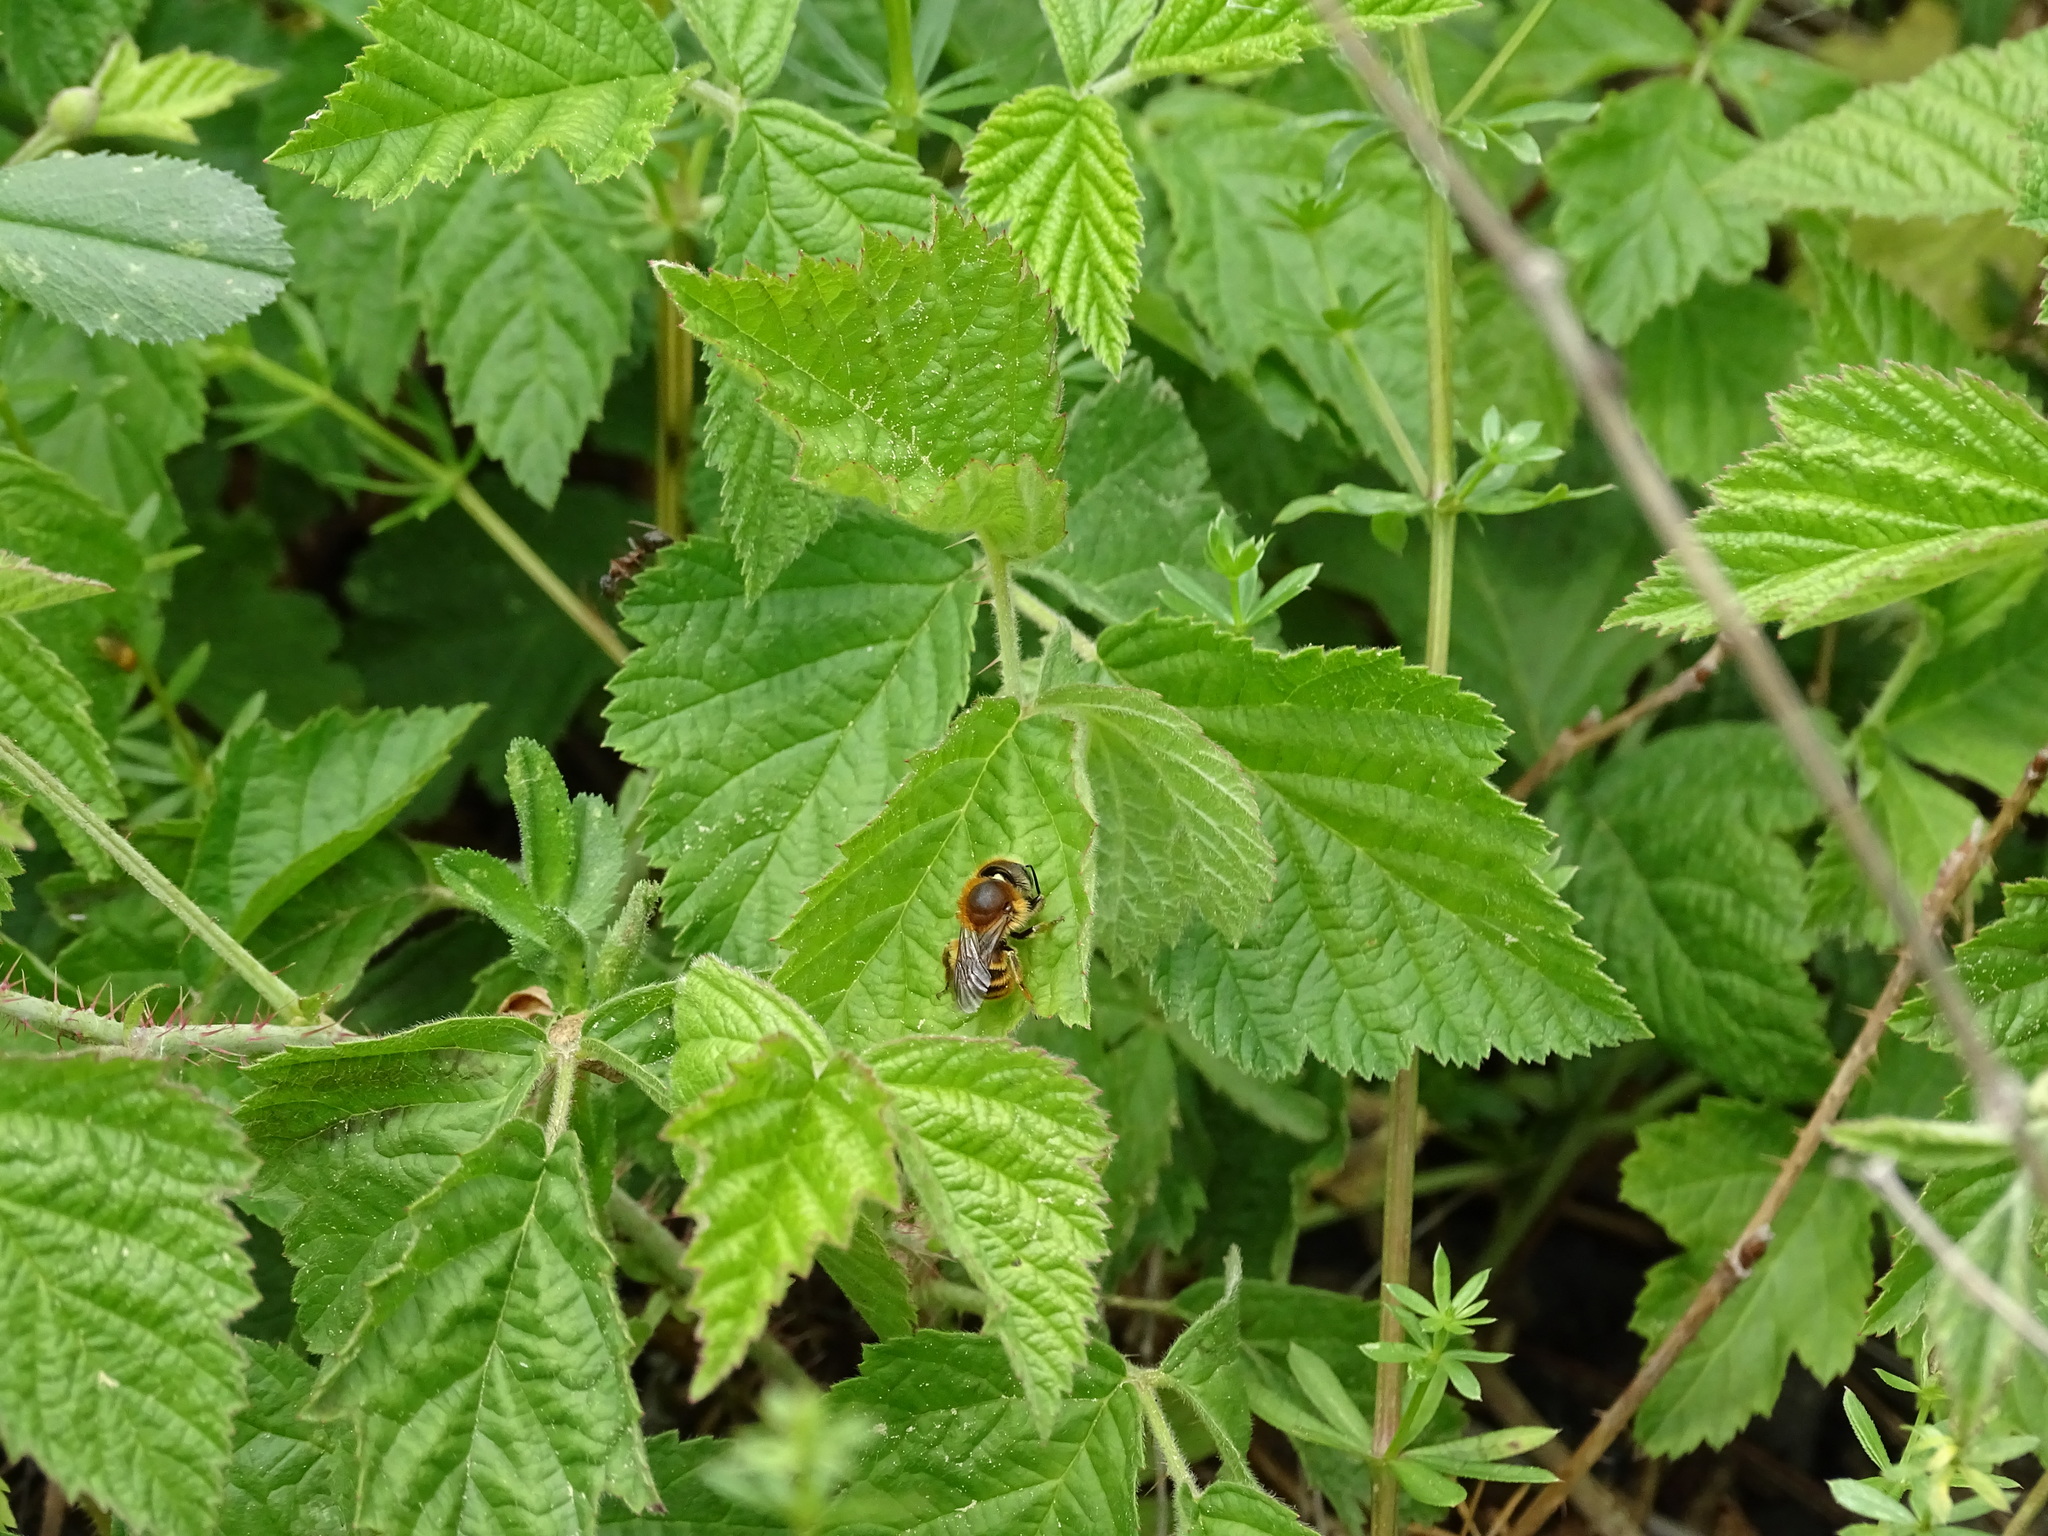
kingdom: Animalia
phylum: Arthropoda
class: Insecta
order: Hymenoptera
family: Megachilidae
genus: Osmia
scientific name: Osmia aurulenta
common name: Gold-fringed mason bee
